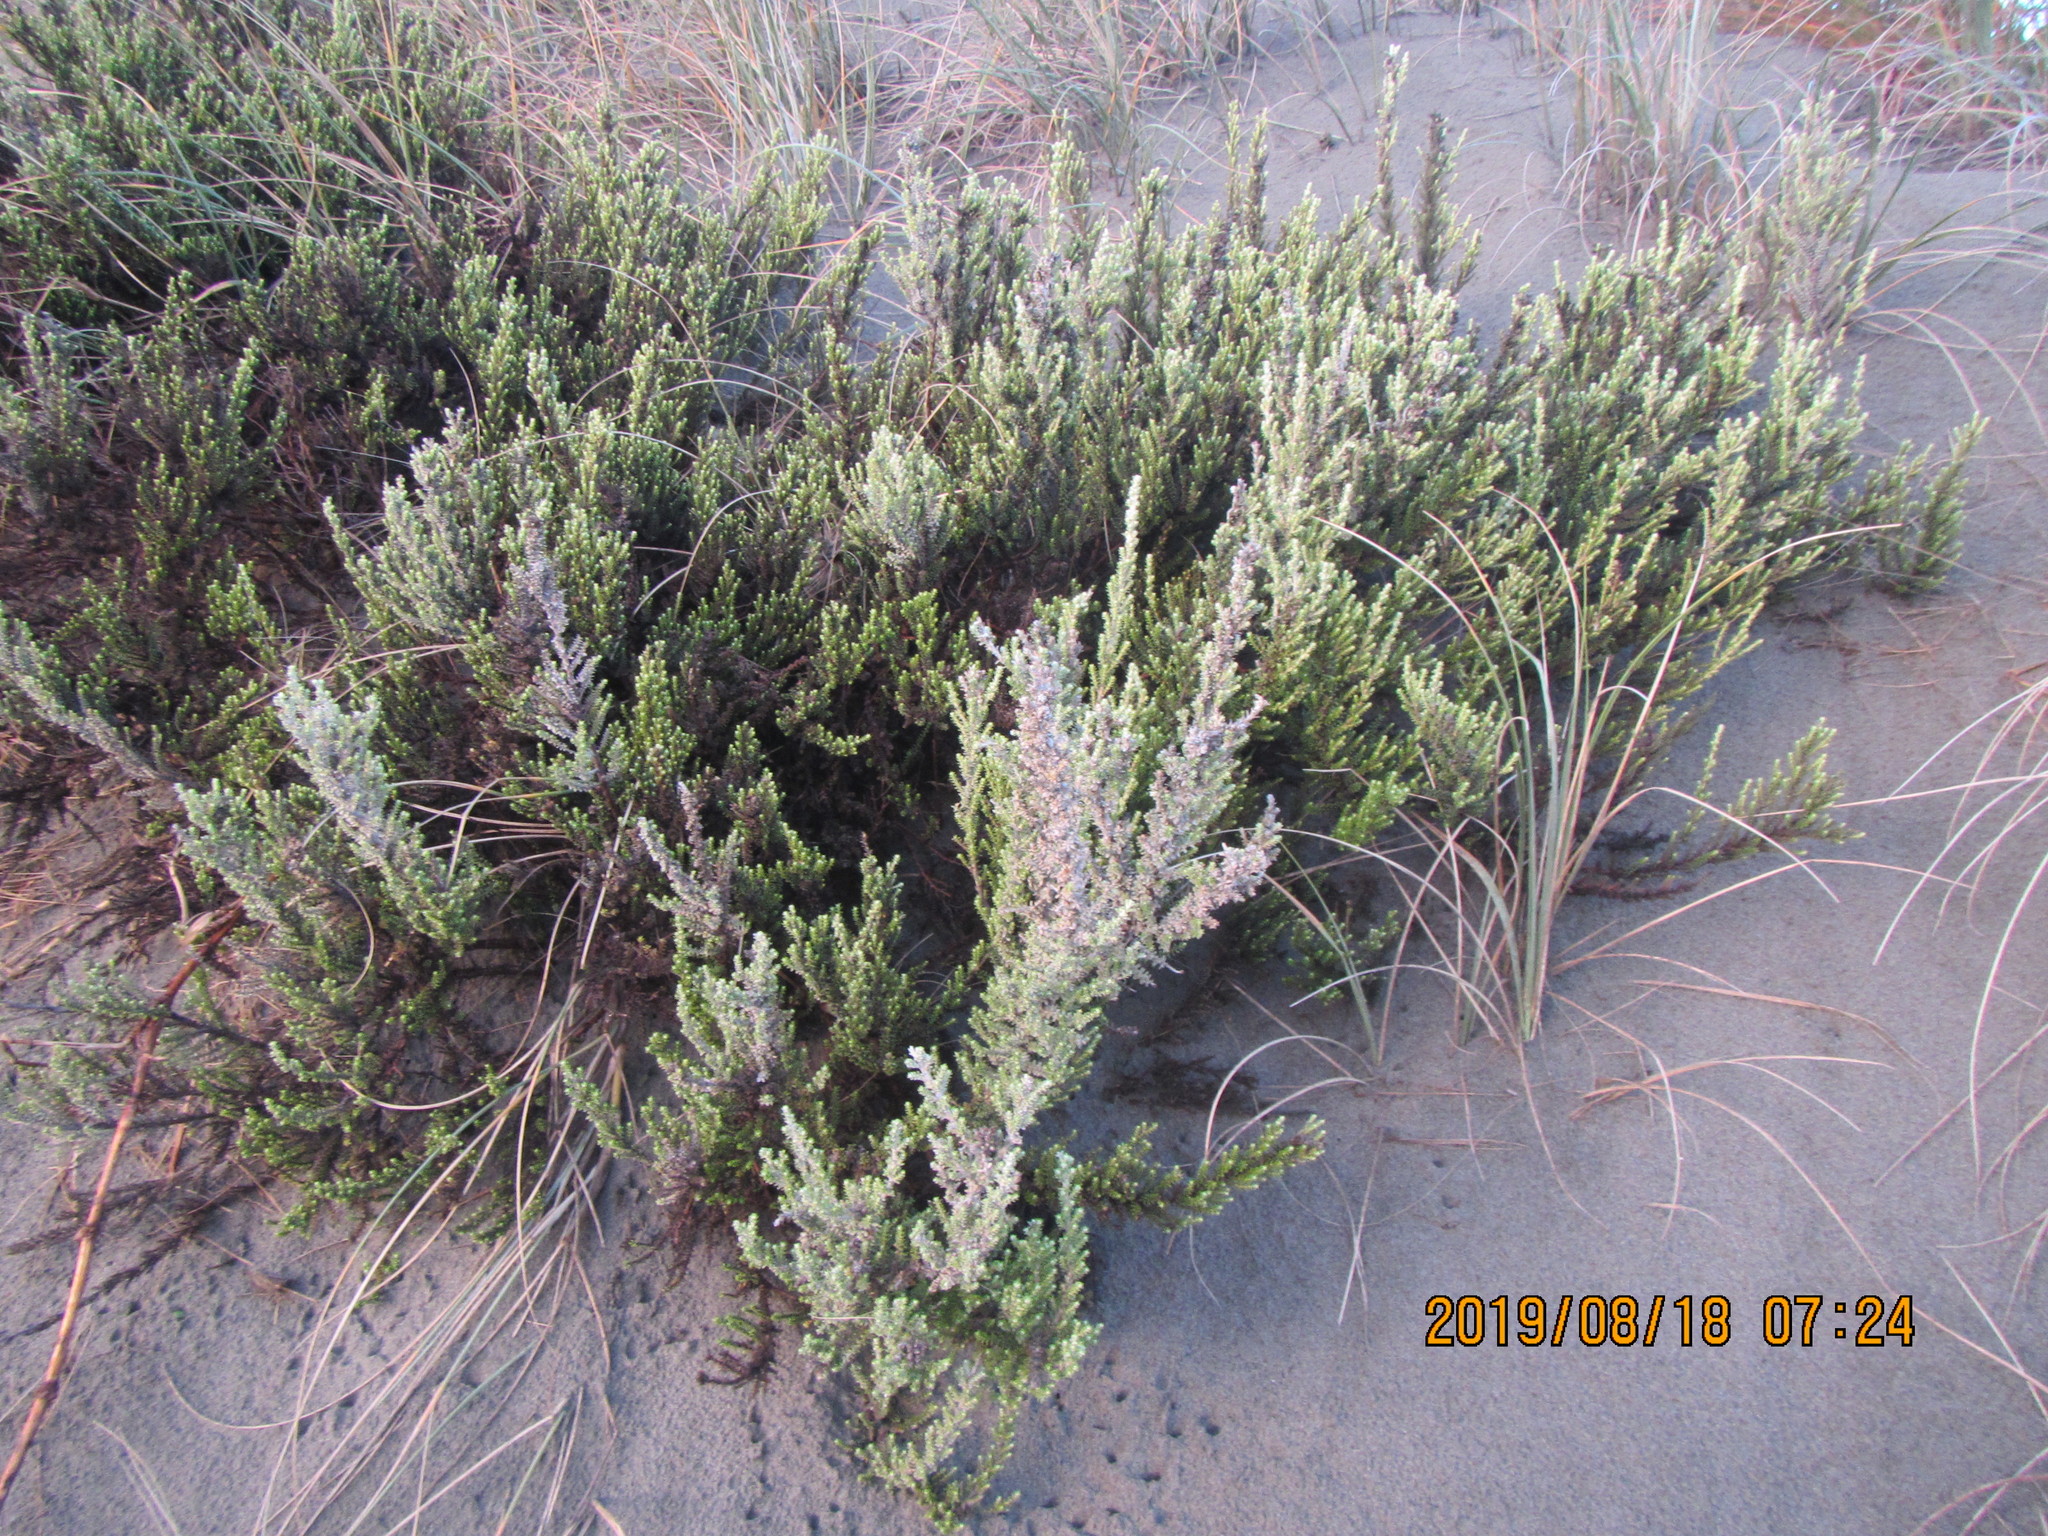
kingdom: Plantae
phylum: Tracheophyta
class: Magnoliopsida
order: Asterales
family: Asteraceae
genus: Ozothamnus
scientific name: Ozothamnus leptophyllus
